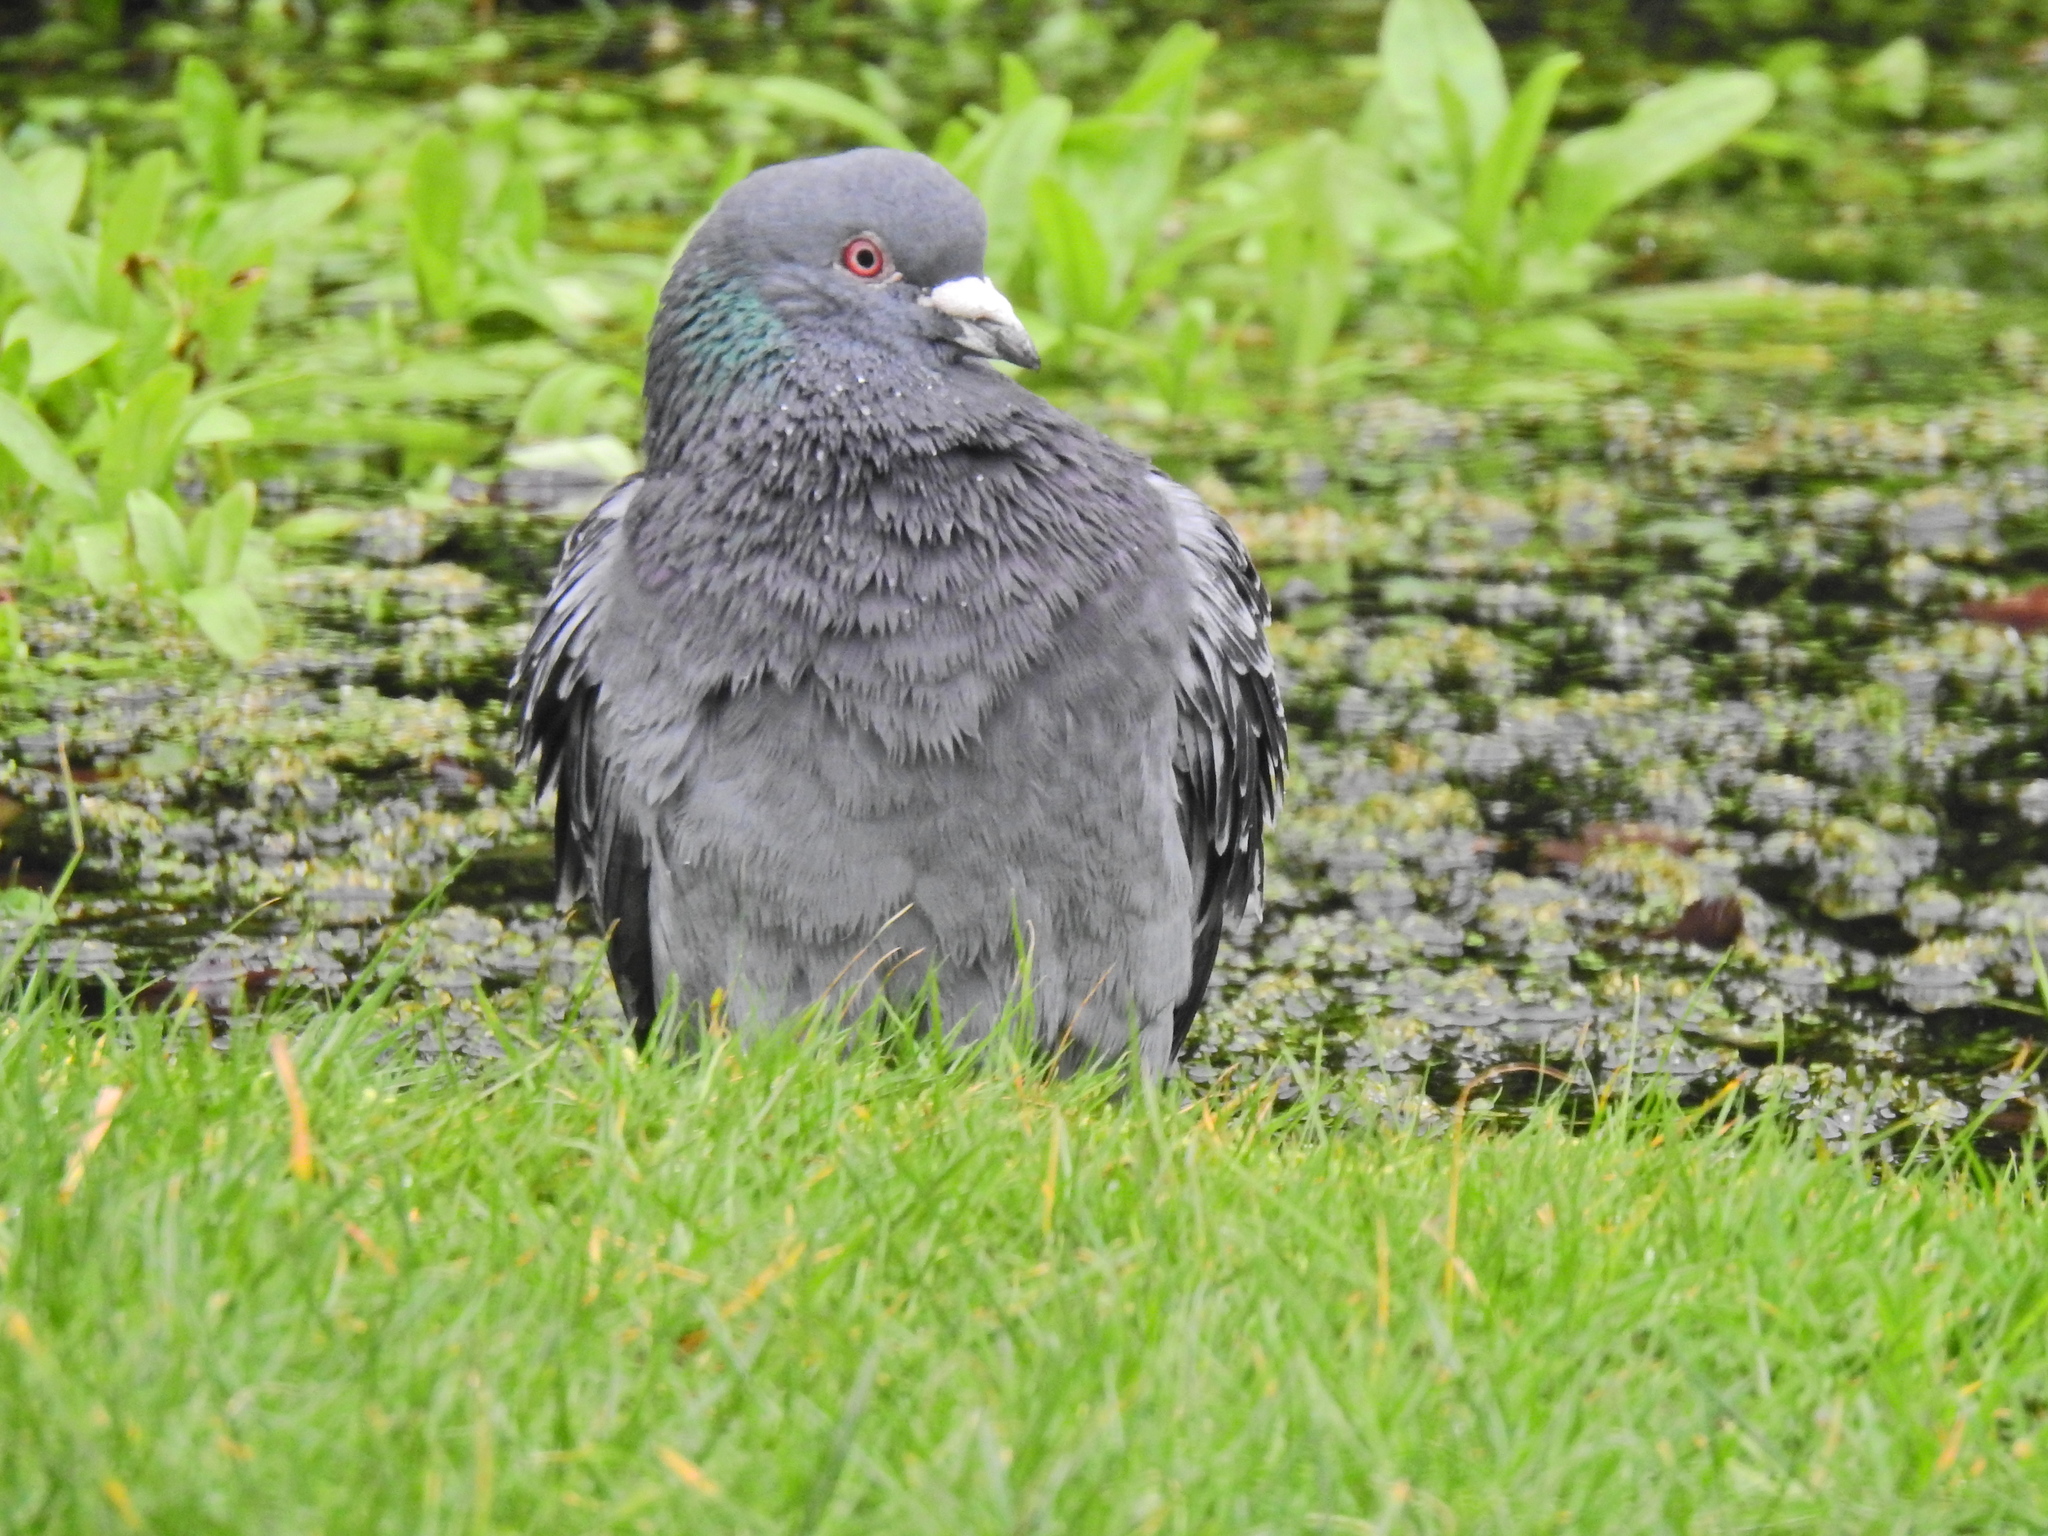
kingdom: Animalia
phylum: Chordata
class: Aves
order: Columbiformes
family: Columbidae
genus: Columba
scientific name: Columba livia
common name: Rock pigeon
